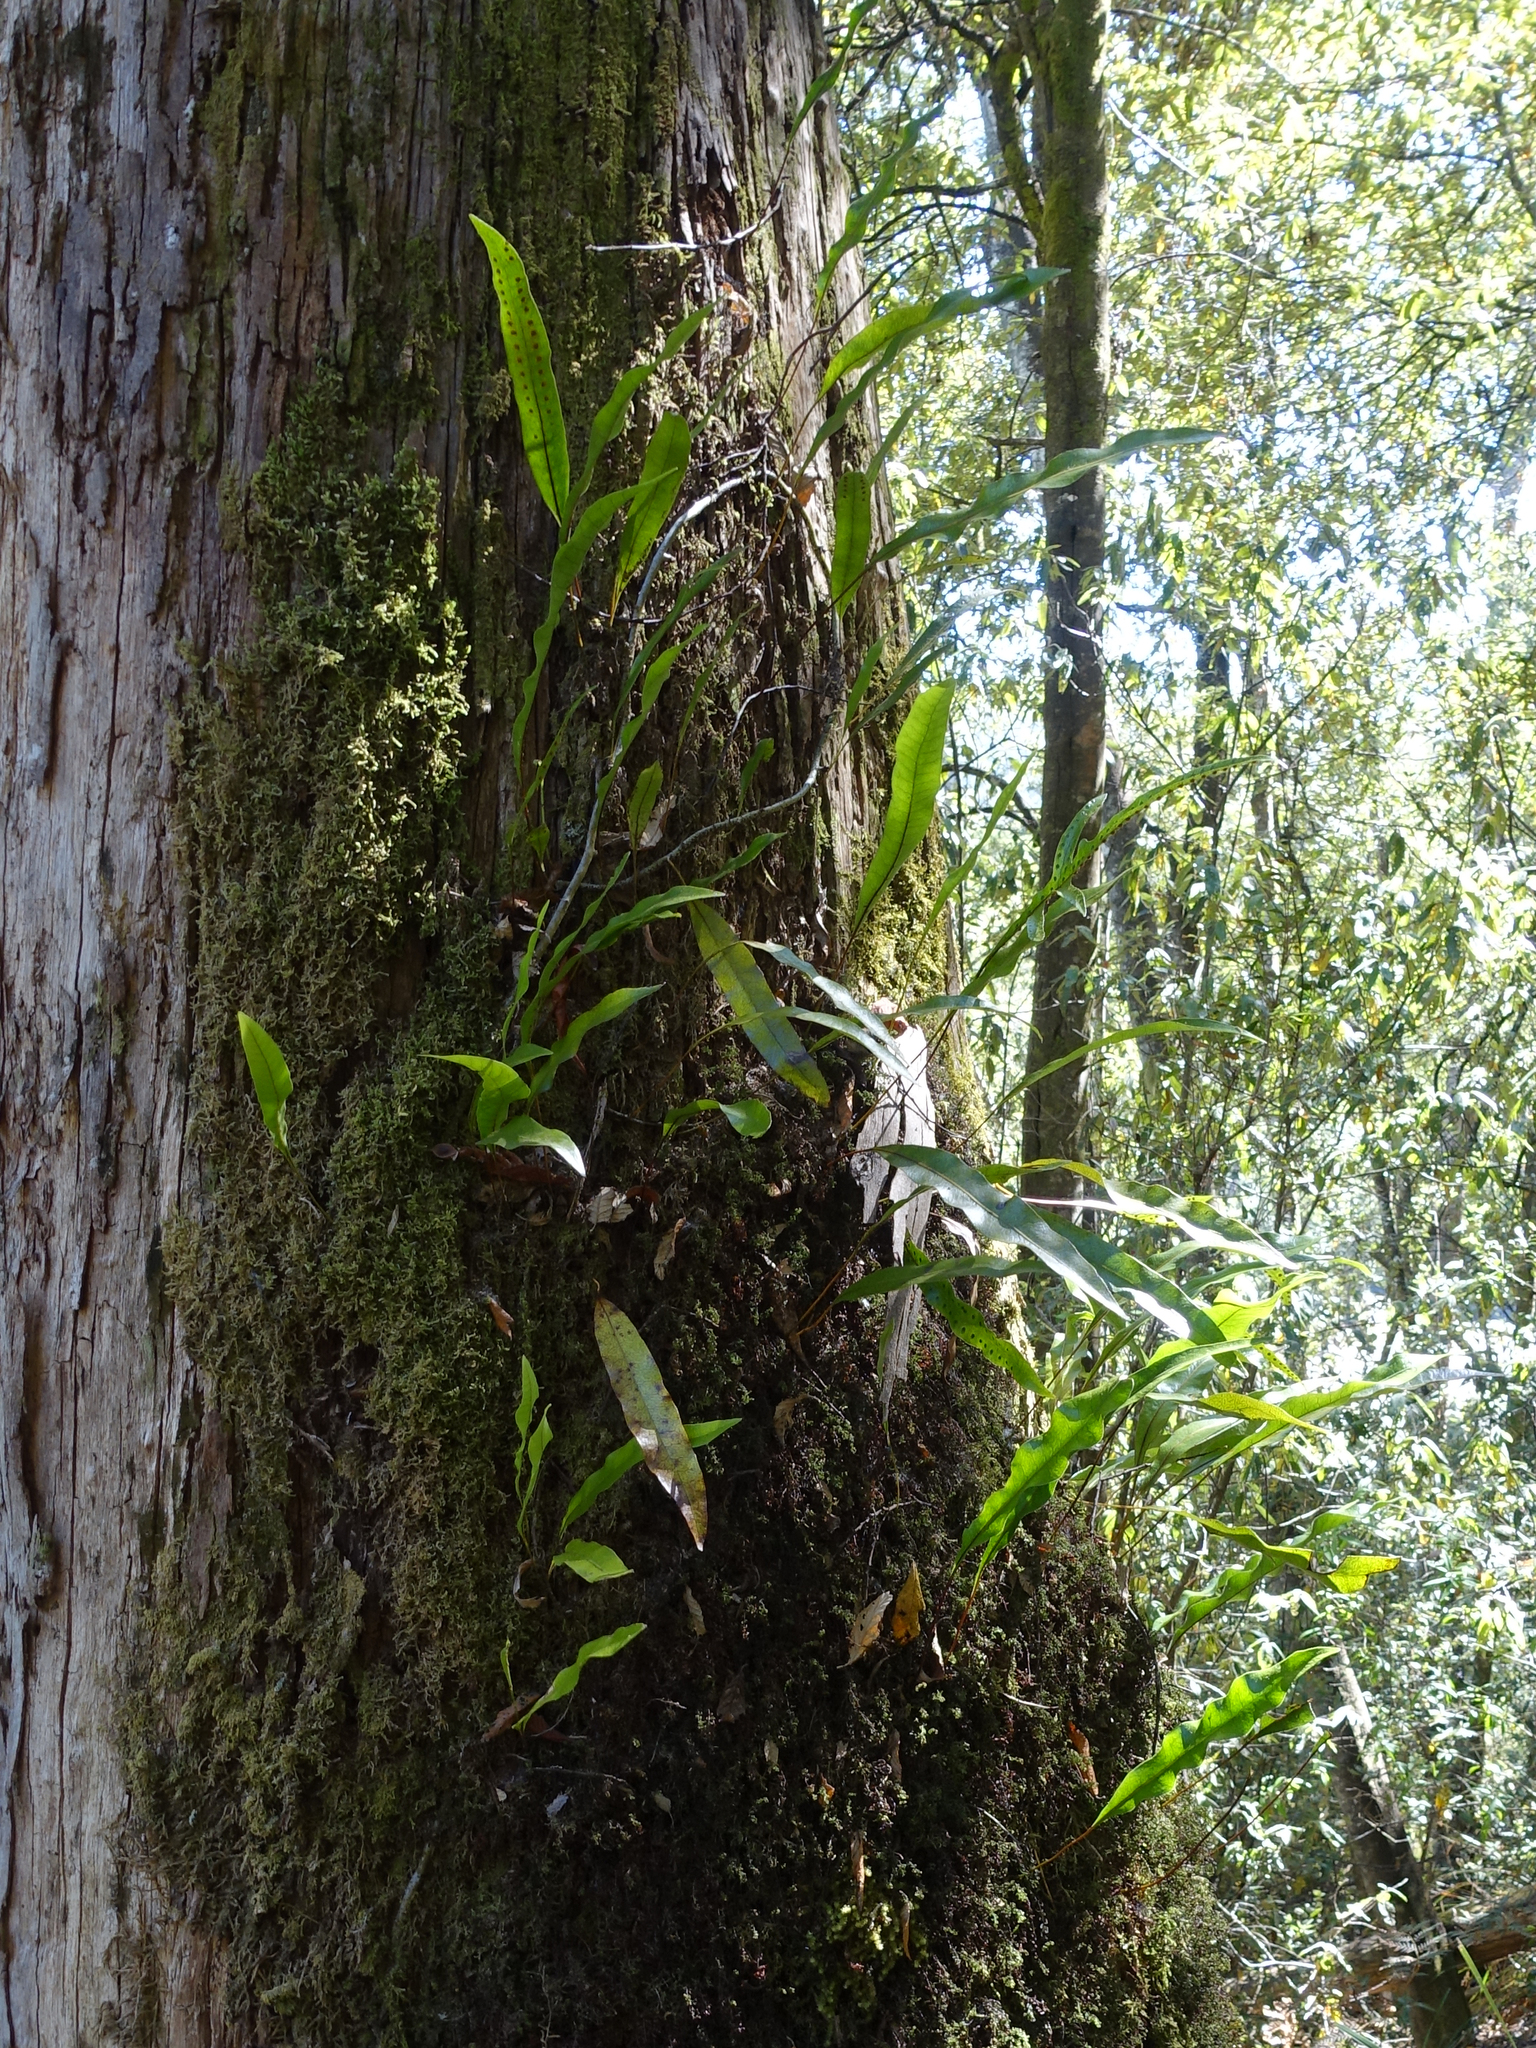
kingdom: Plantae
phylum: Tracheophyta
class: Polypodiopsida
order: Polypodiales
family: Polypodiaceae
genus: Lecanopteris
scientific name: Lecanopteris pustulata
